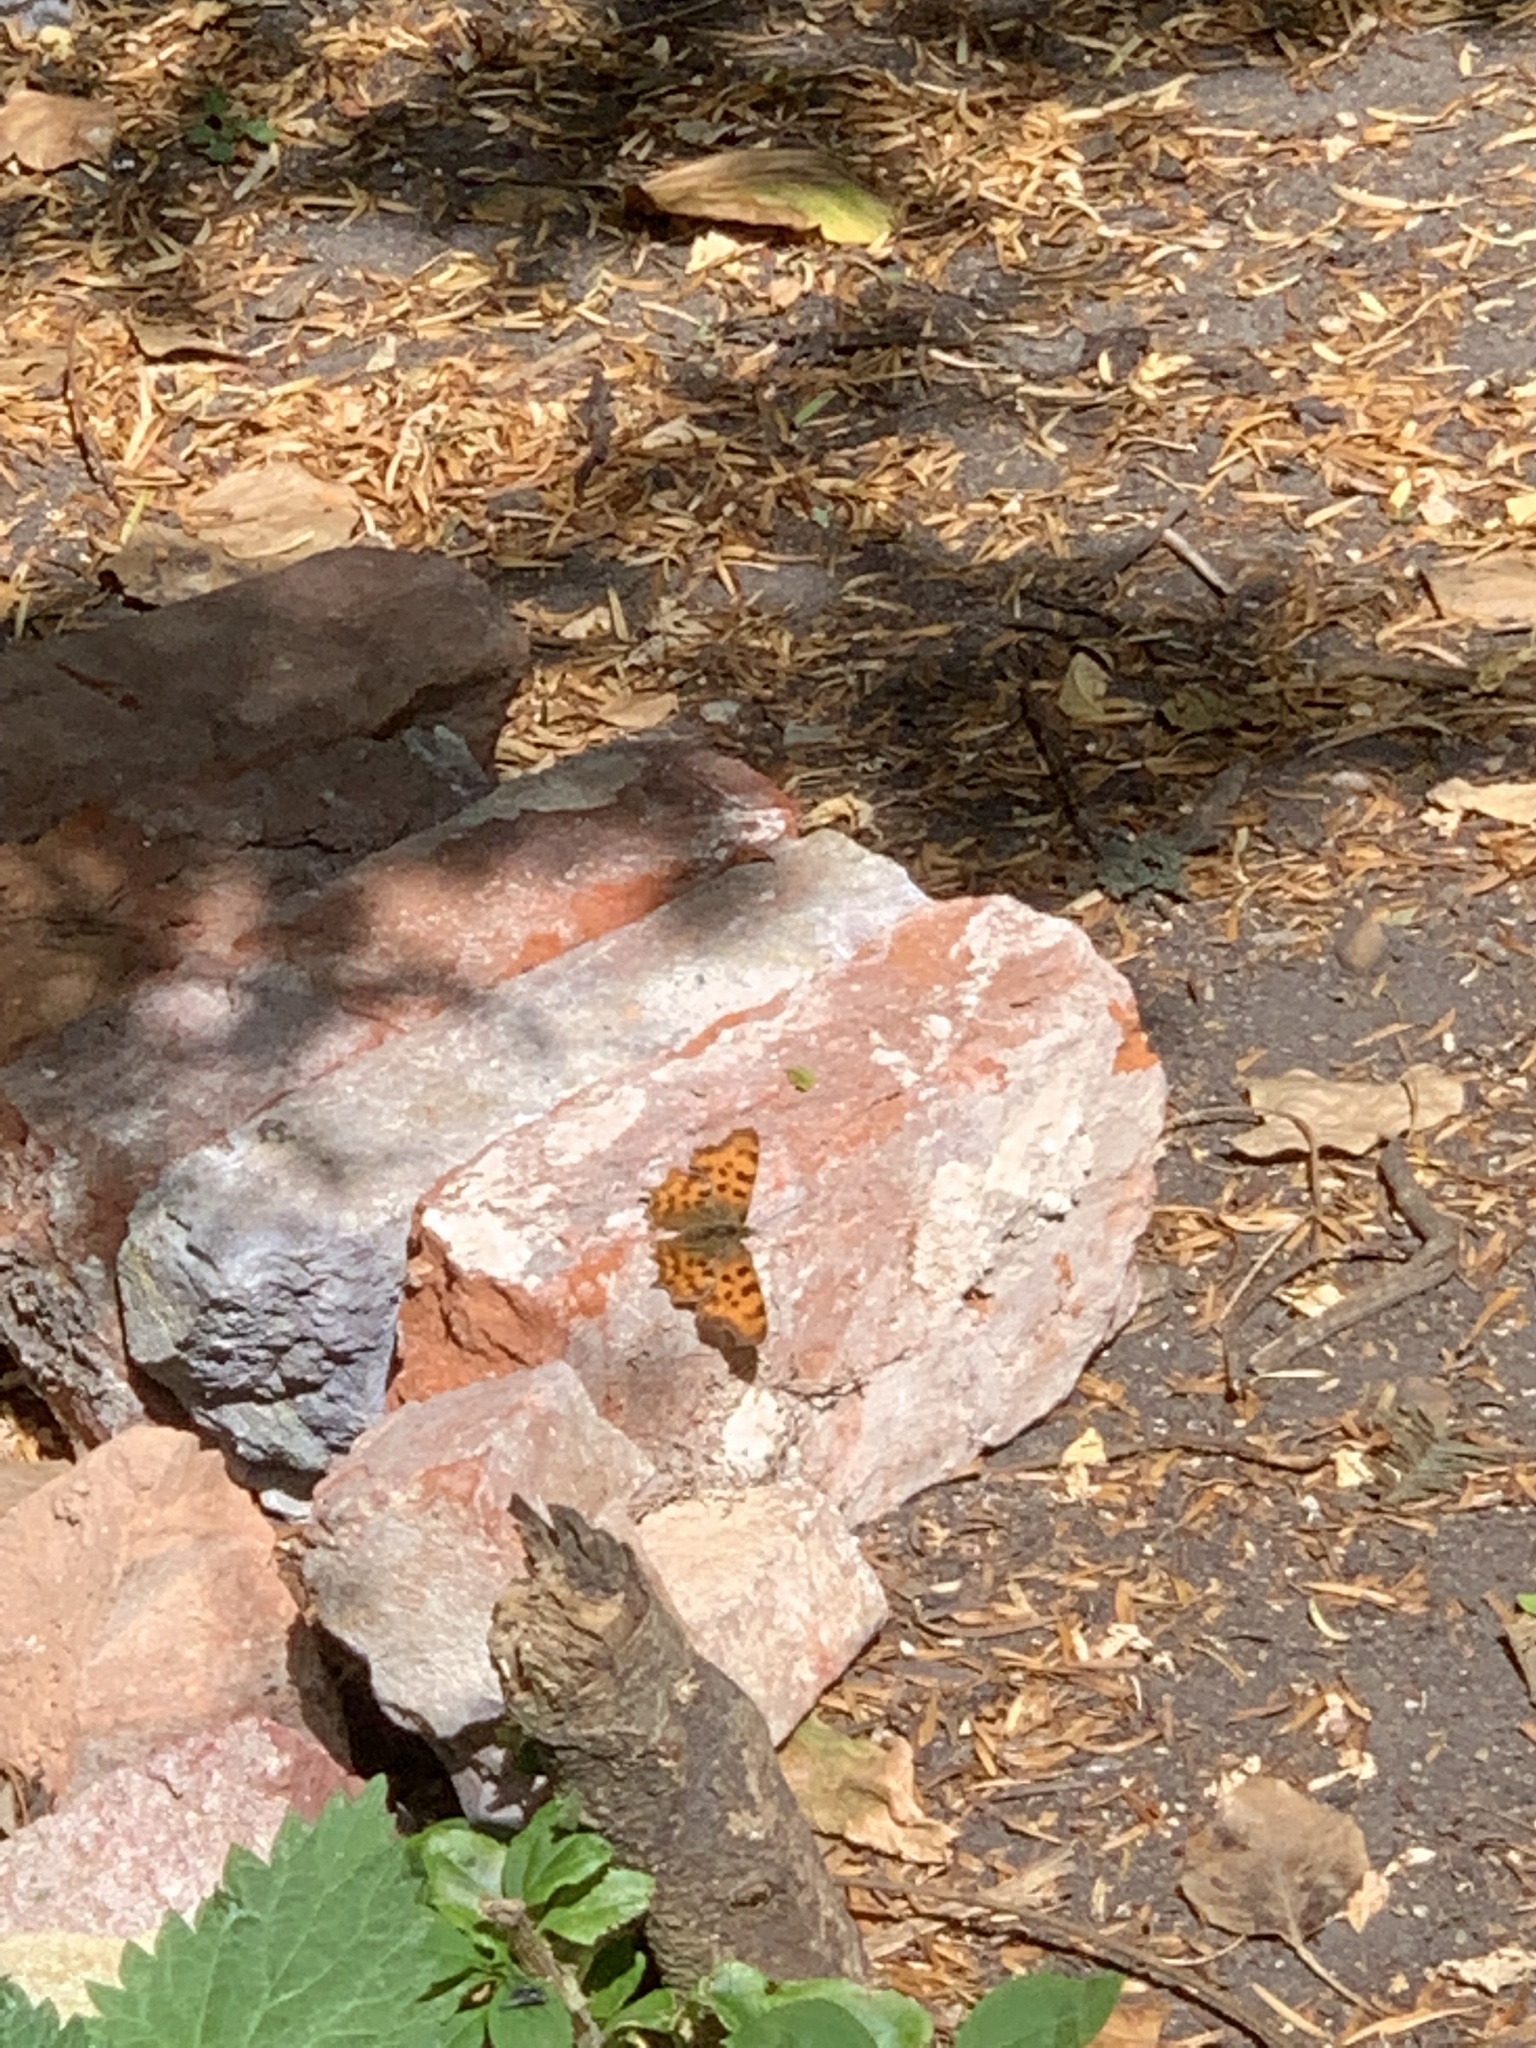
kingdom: Animalia
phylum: Arthropoda
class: Insecta
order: Lepidoptera
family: Nymphalidae
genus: Polygonia
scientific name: Polygonia c-album
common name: Comma
